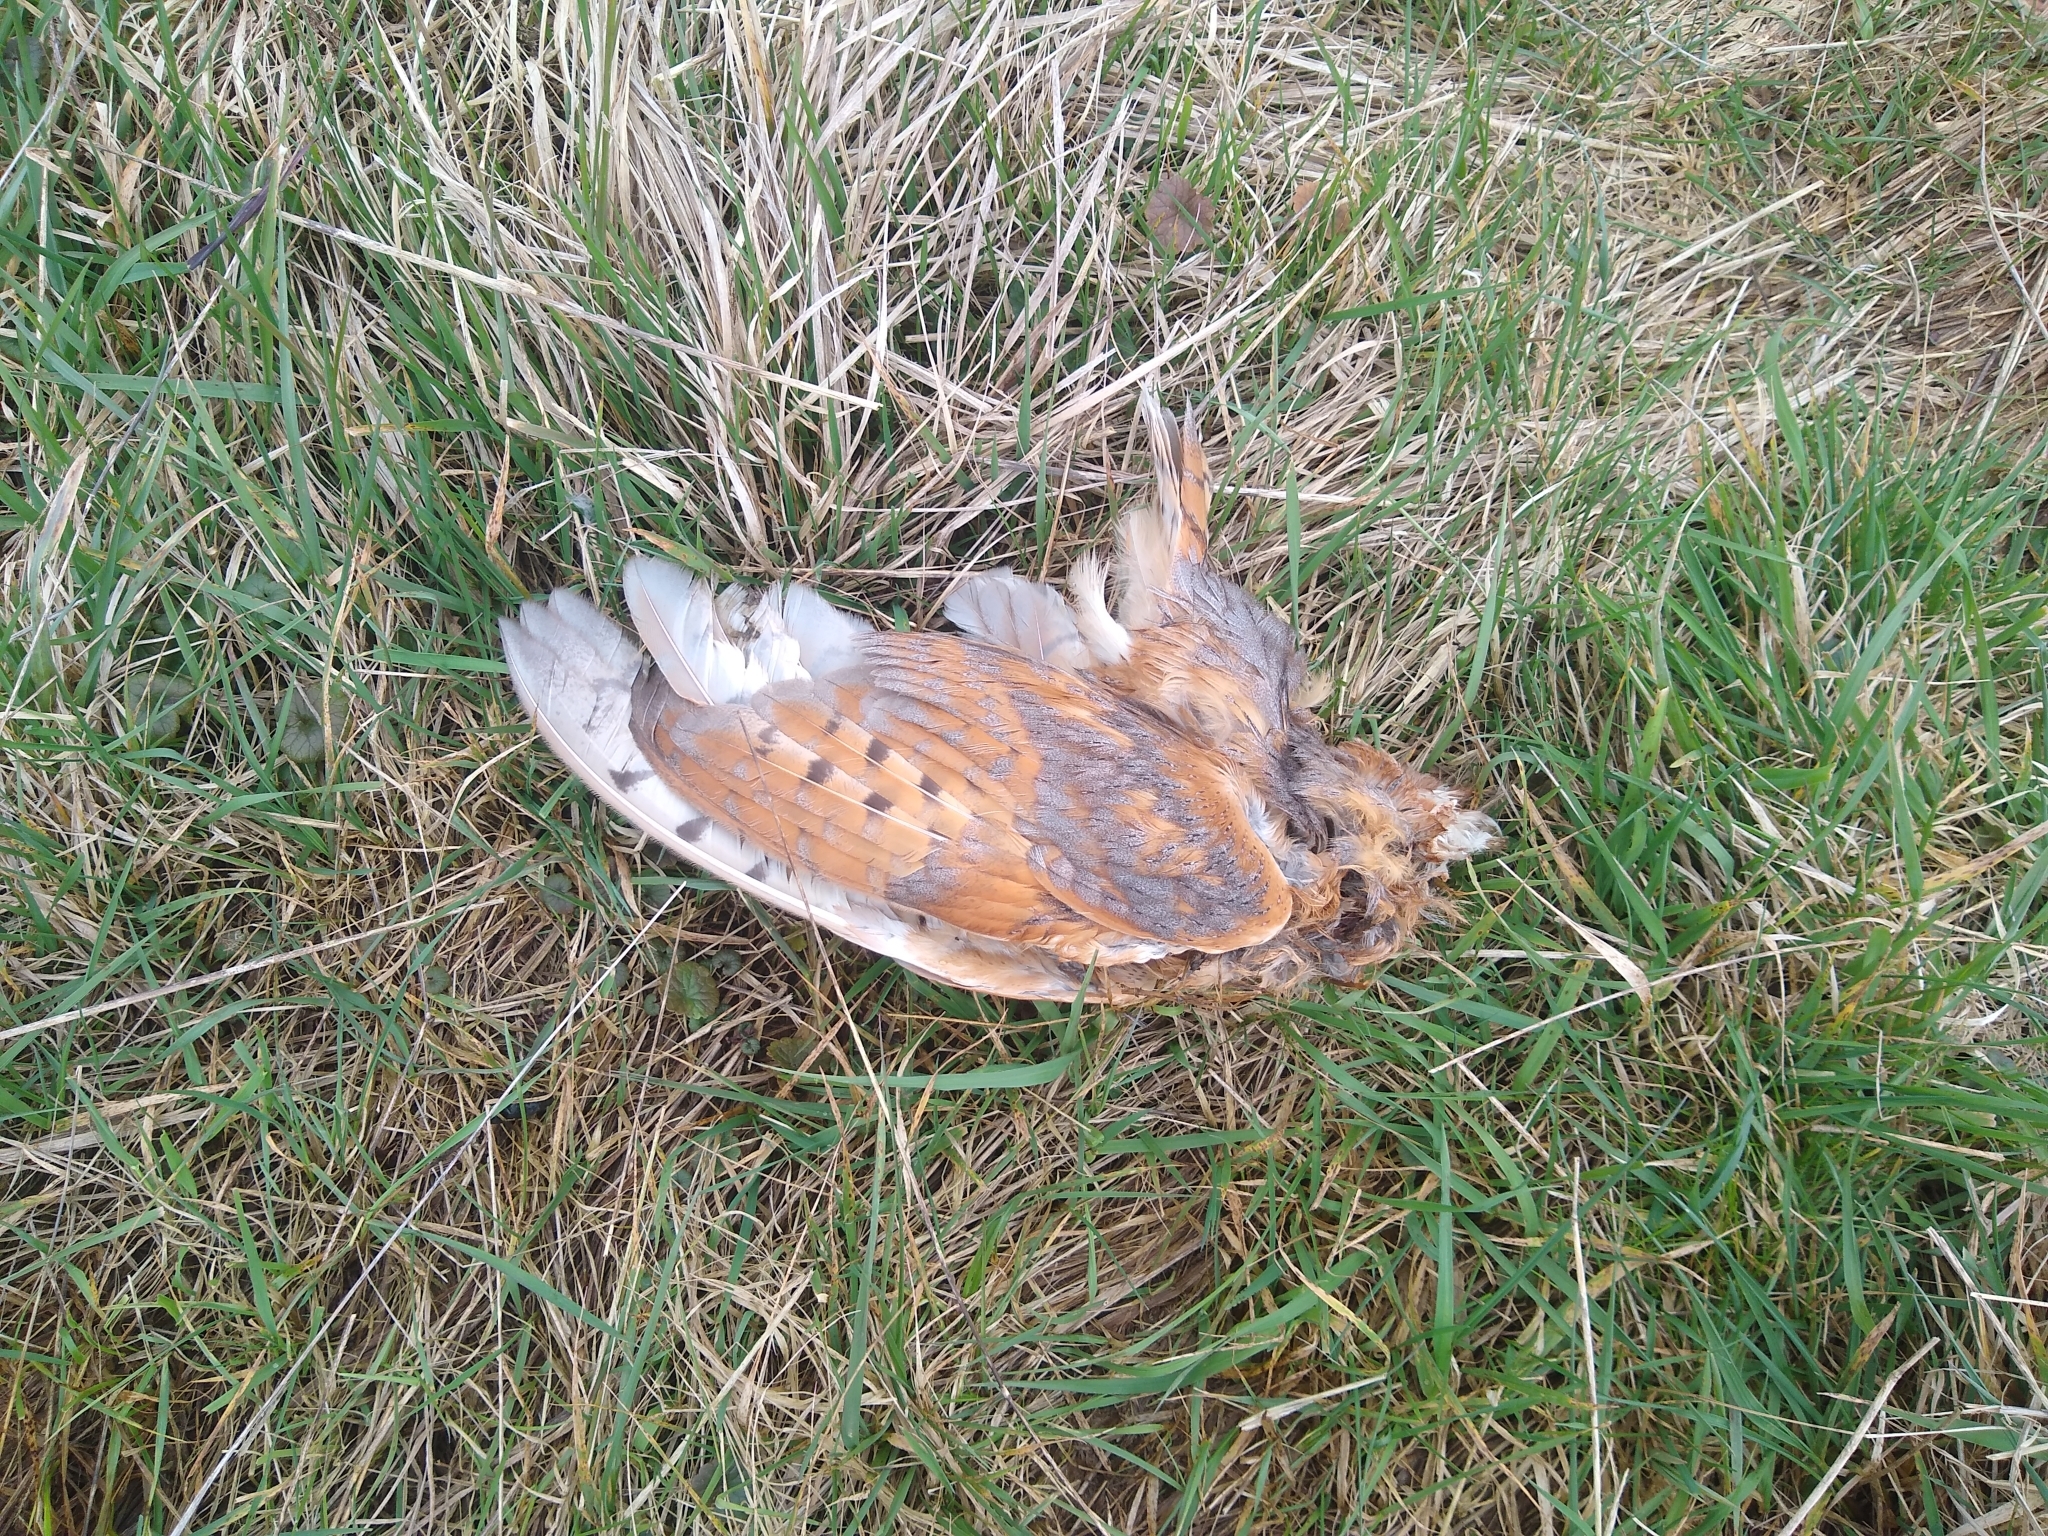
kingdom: Animalia
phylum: Chordata
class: Aves
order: Strigiformes
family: Tytonidae
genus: Tyto
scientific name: Tyto alba
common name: Barn owl
